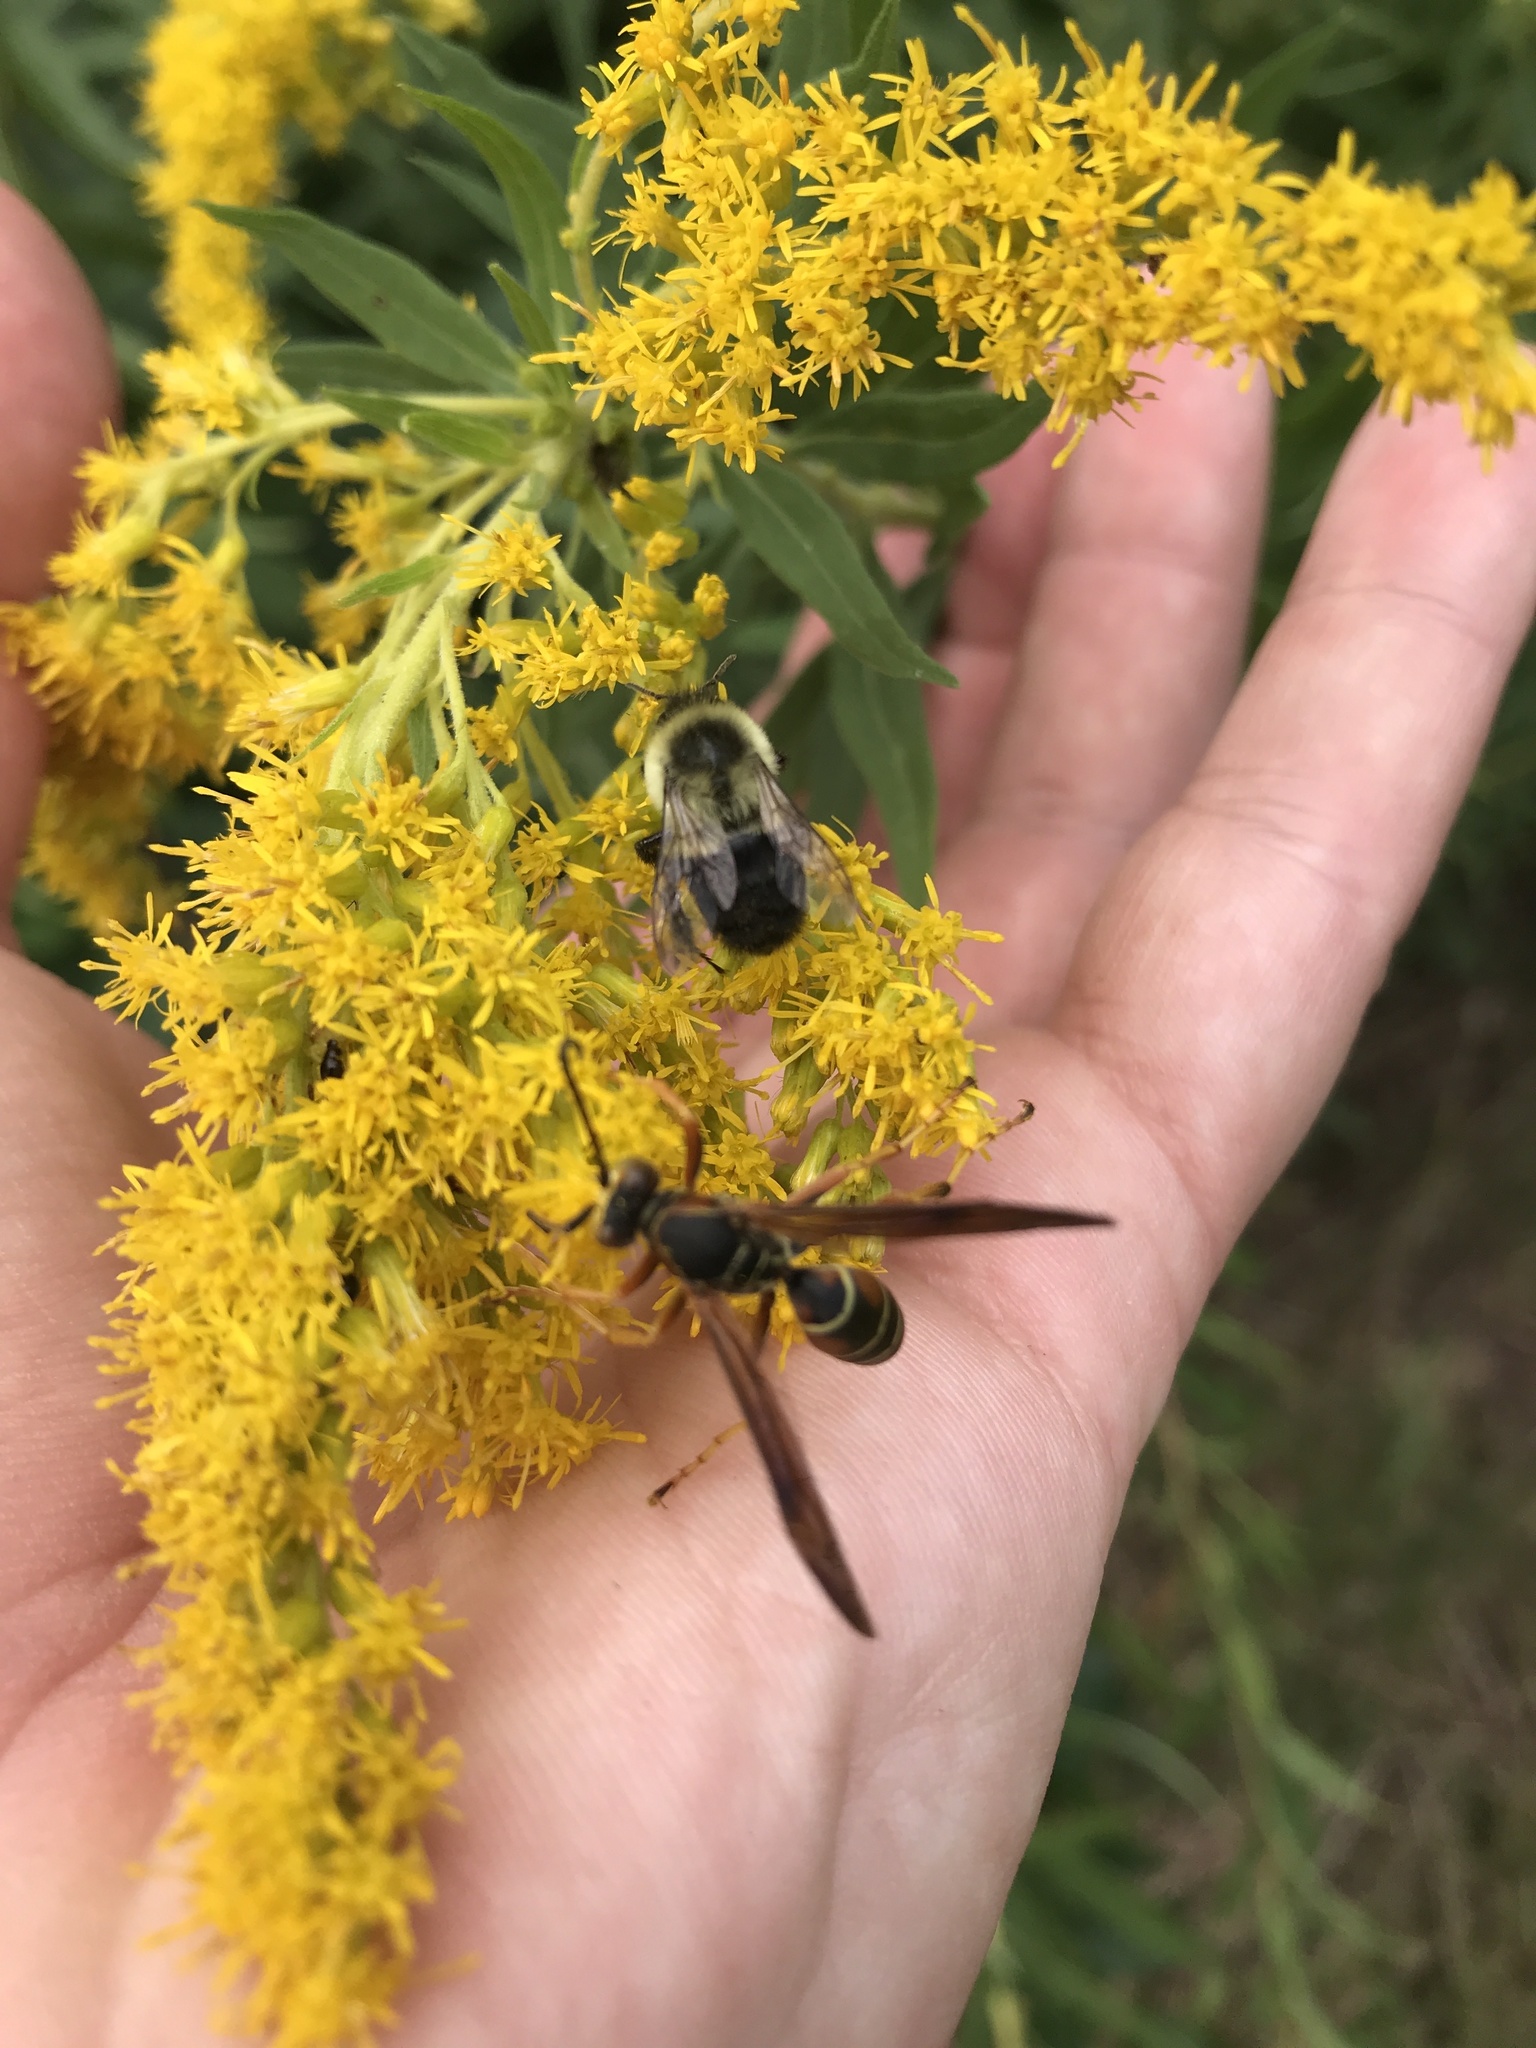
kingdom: Animalia
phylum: Arthropoda
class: Insecta
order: Hymenoptera
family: Apidae
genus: Bombus
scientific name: Bombus impatiens
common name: Common eastern bumble bee
